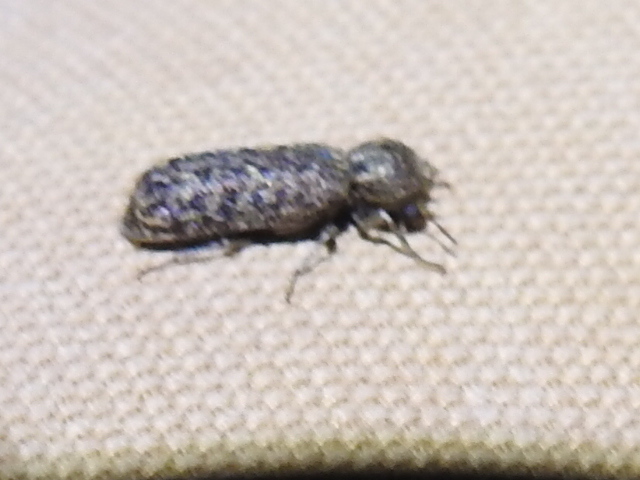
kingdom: Animalia
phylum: Arthropoda
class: Insecta
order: Coleoptera
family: Bostrichidae
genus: Lichenophanes
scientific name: Lichenophanes bicornis
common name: Two-horned powder-post beetle
